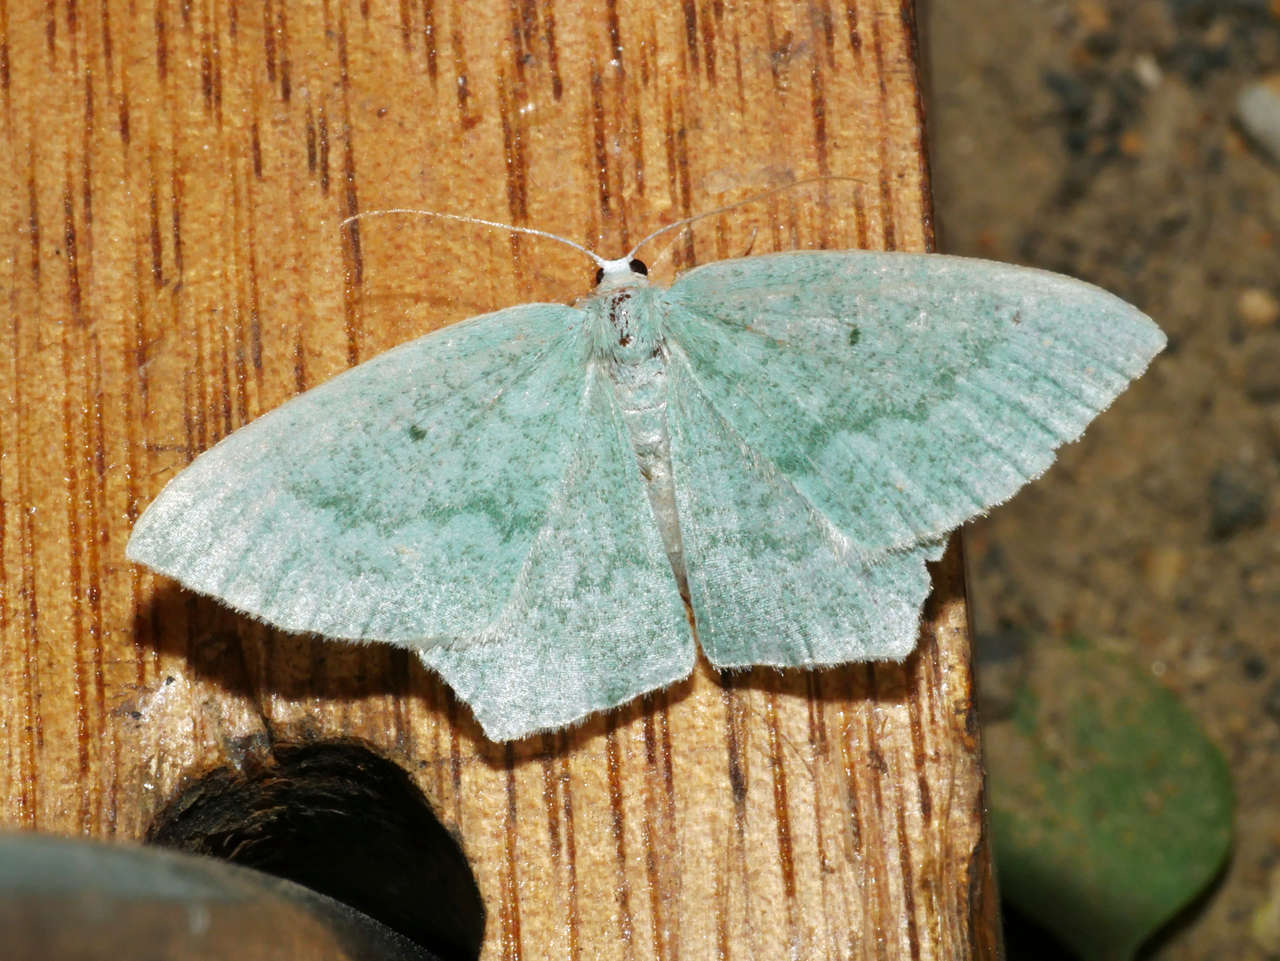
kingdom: Animalia
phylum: Arthropoda
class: Insecta
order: Lepidoptera
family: Geometridae
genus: Maxates
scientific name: Maxates centrophylla
